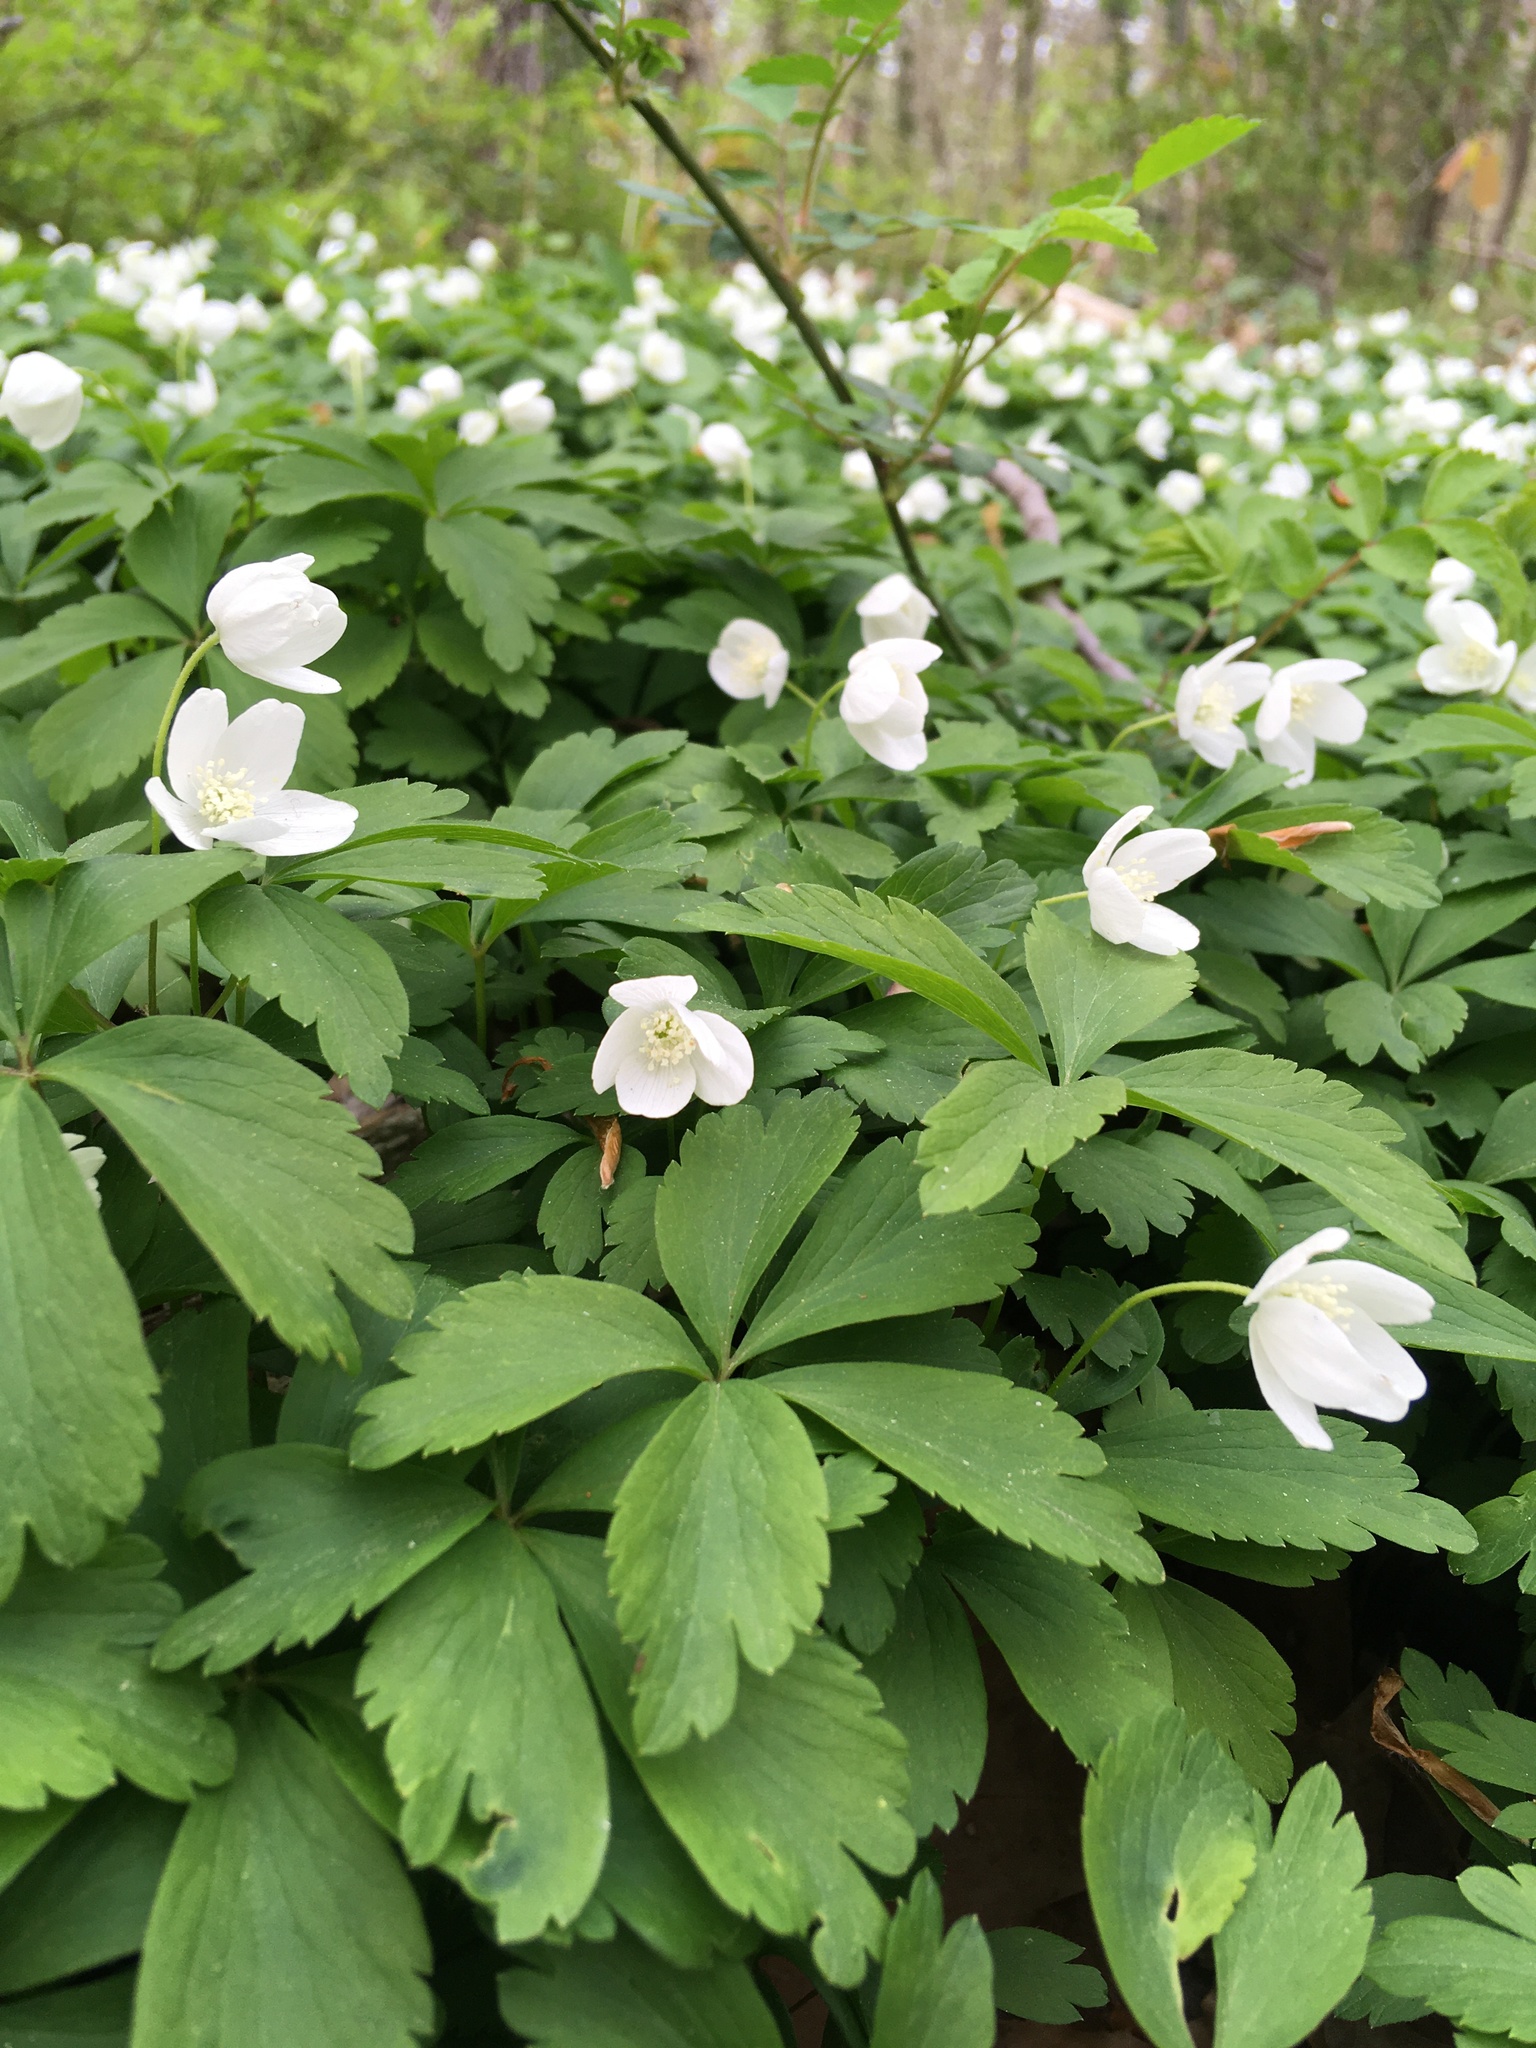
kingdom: Plantae
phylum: Tracheophyta
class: Magnoliopsida
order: Ranunculales
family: Ranunculaceae
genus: Anemone
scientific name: Anemone quinquefolia
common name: Wood anemone
